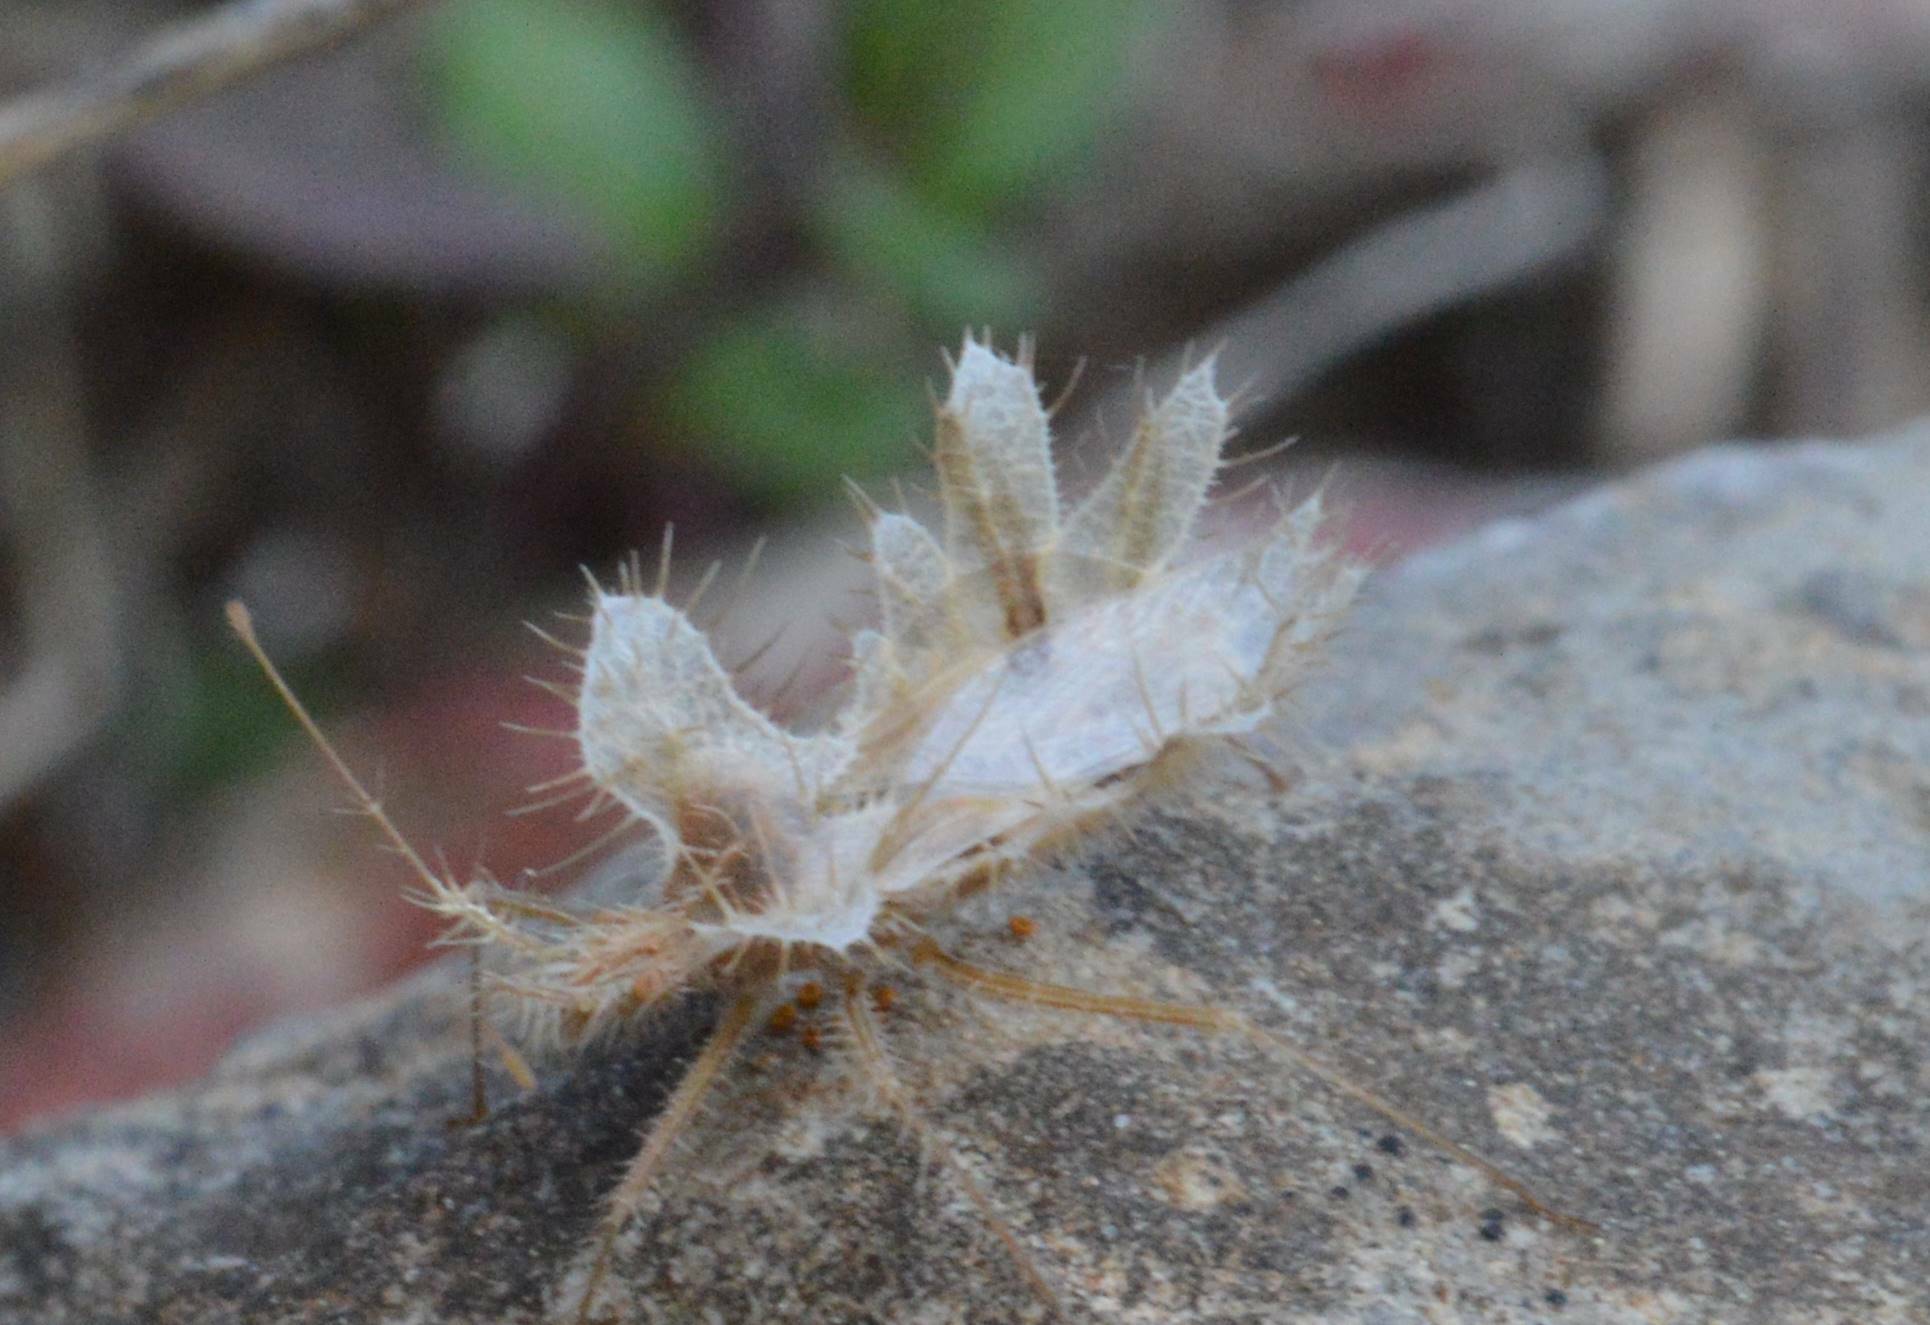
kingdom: Animalia
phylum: Arthropoda
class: Insecta
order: Hemiptera
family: Coreidae
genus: Phyllomorpha
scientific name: Phyllomorpha laciniata
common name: Golden egg bug
